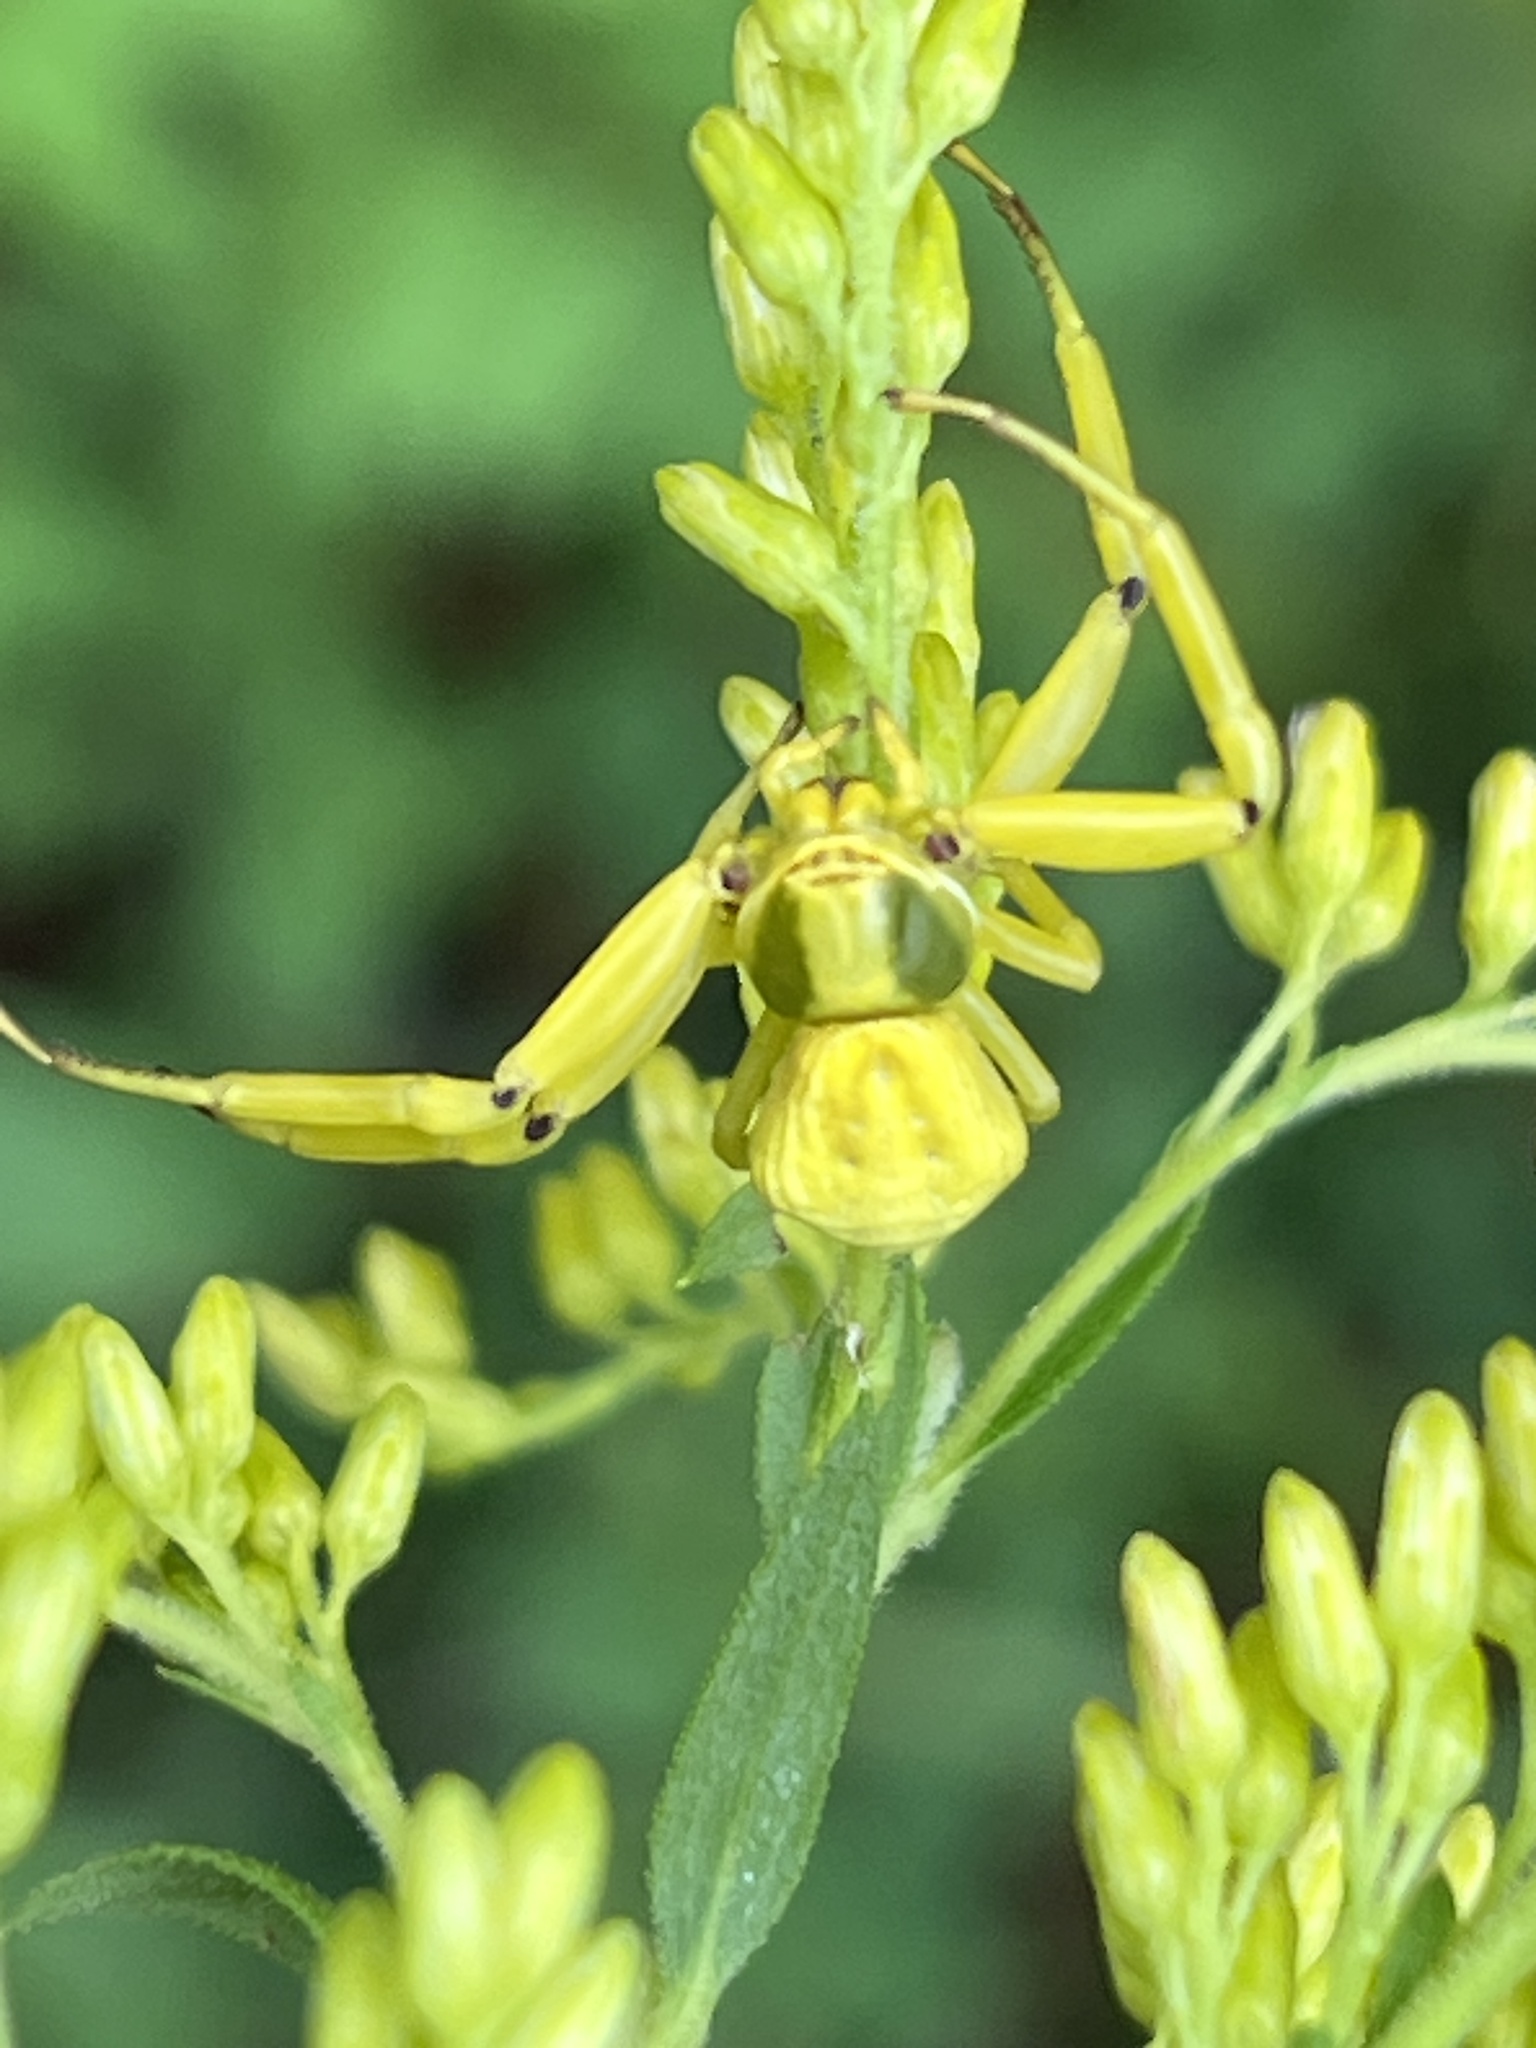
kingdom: Animalia
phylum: Arthropoda
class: Arachnida
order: Araneae
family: Thomisidae
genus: Misumenoides
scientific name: Misumenoides formosipes
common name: White-banded crab spider
